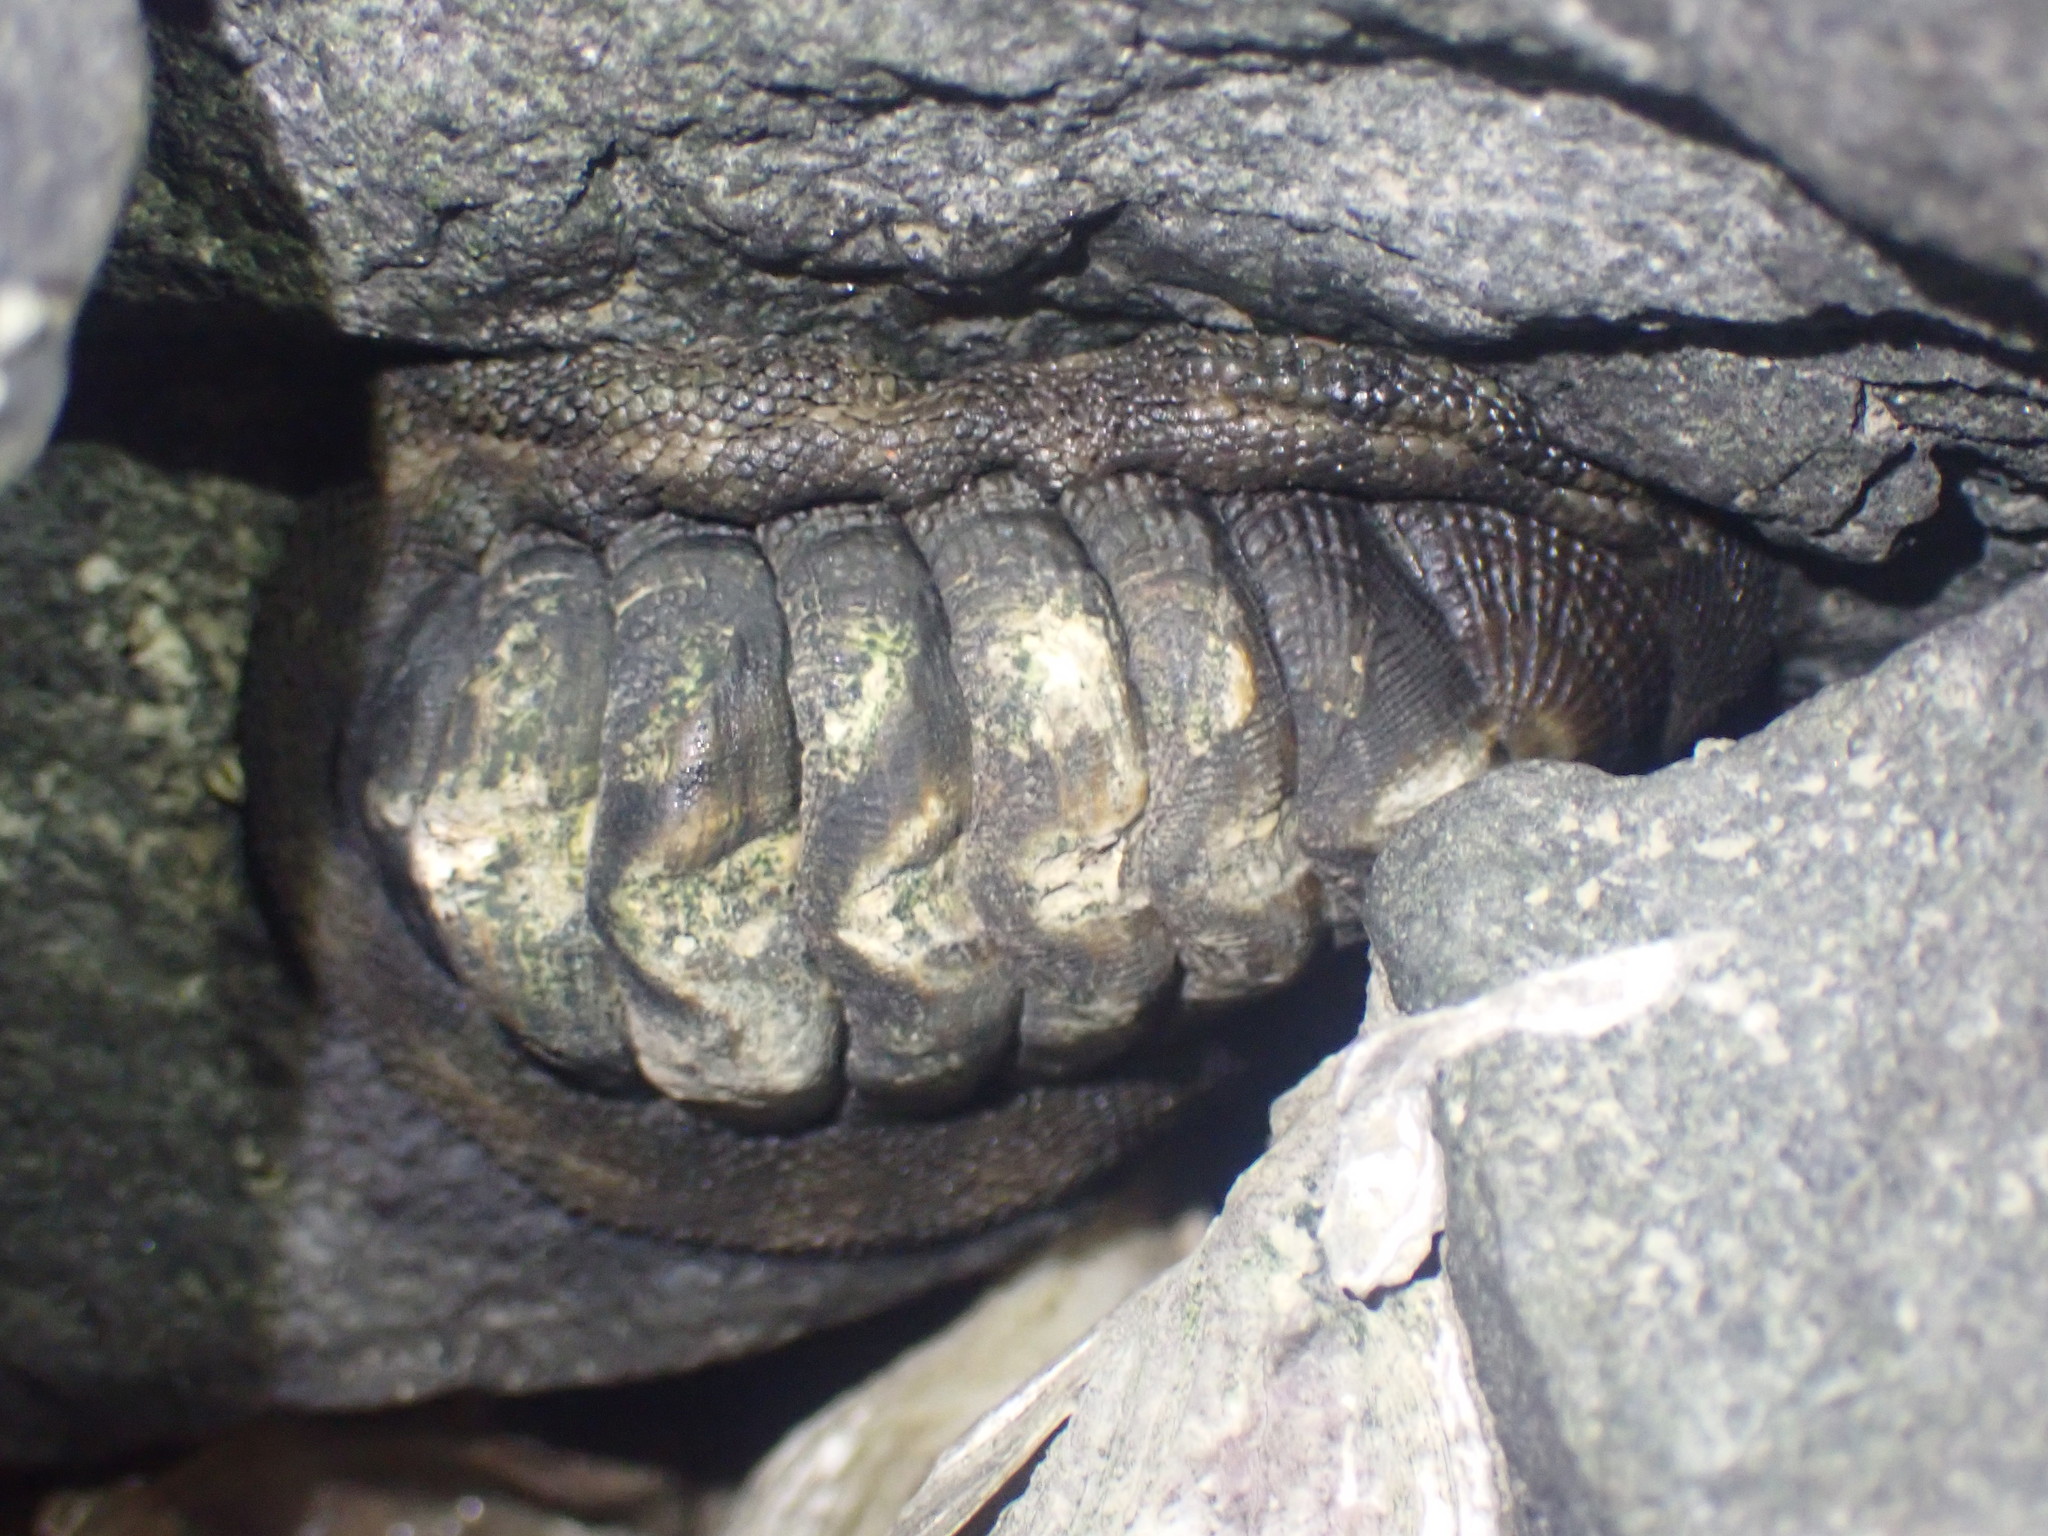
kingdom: Animalia
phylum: Mollusca
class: Polyplacophora
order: Chitonida
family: Chitonidae
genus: Sypharochiton
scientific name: Sypharochiton pelliserpentis
